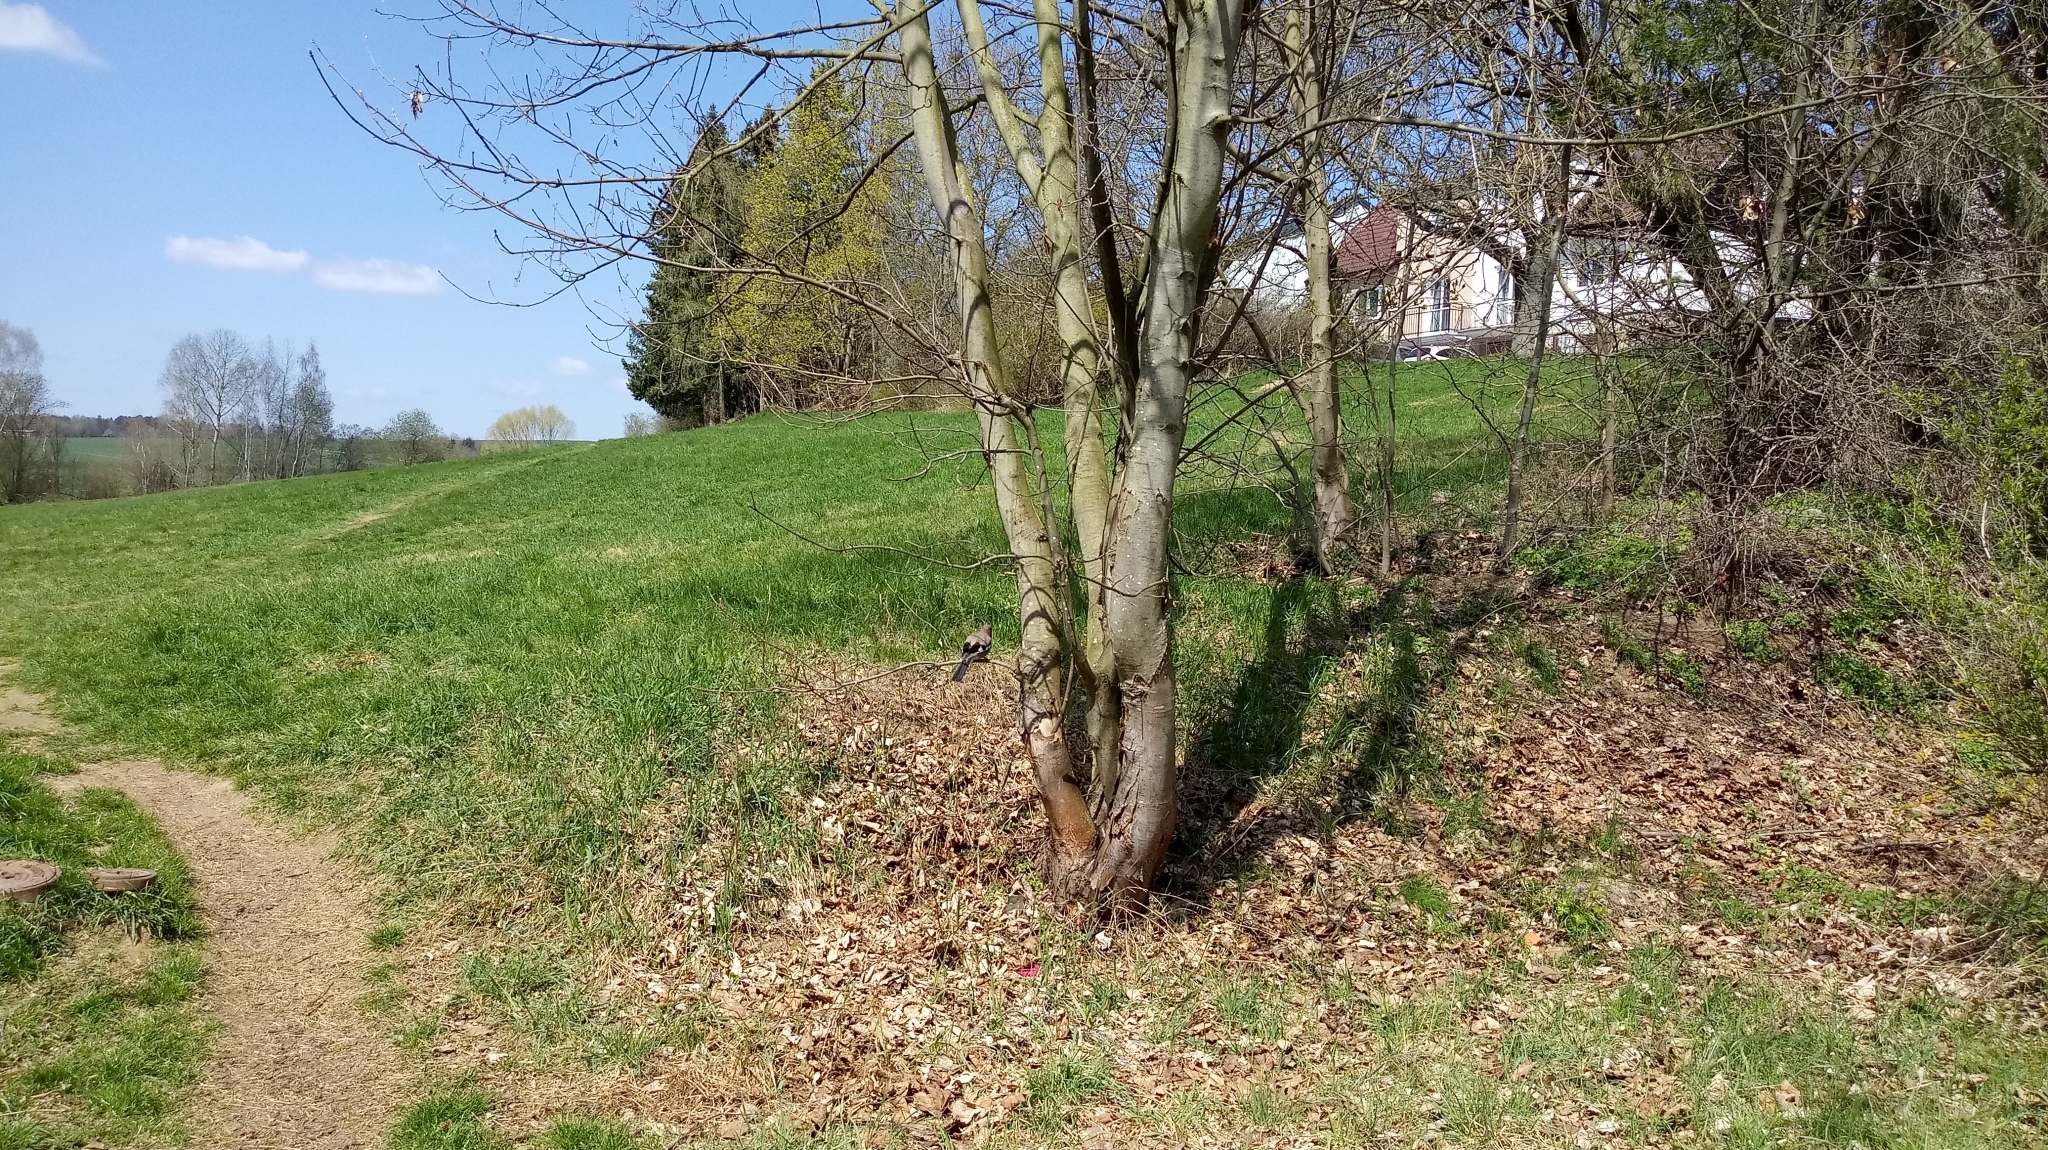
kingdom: Animalia
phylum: Chordata
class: Aves
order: Passeriformes
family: Corvidae
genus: Garrulus
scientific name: Garrulus glandarius
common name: Eurasian jay
